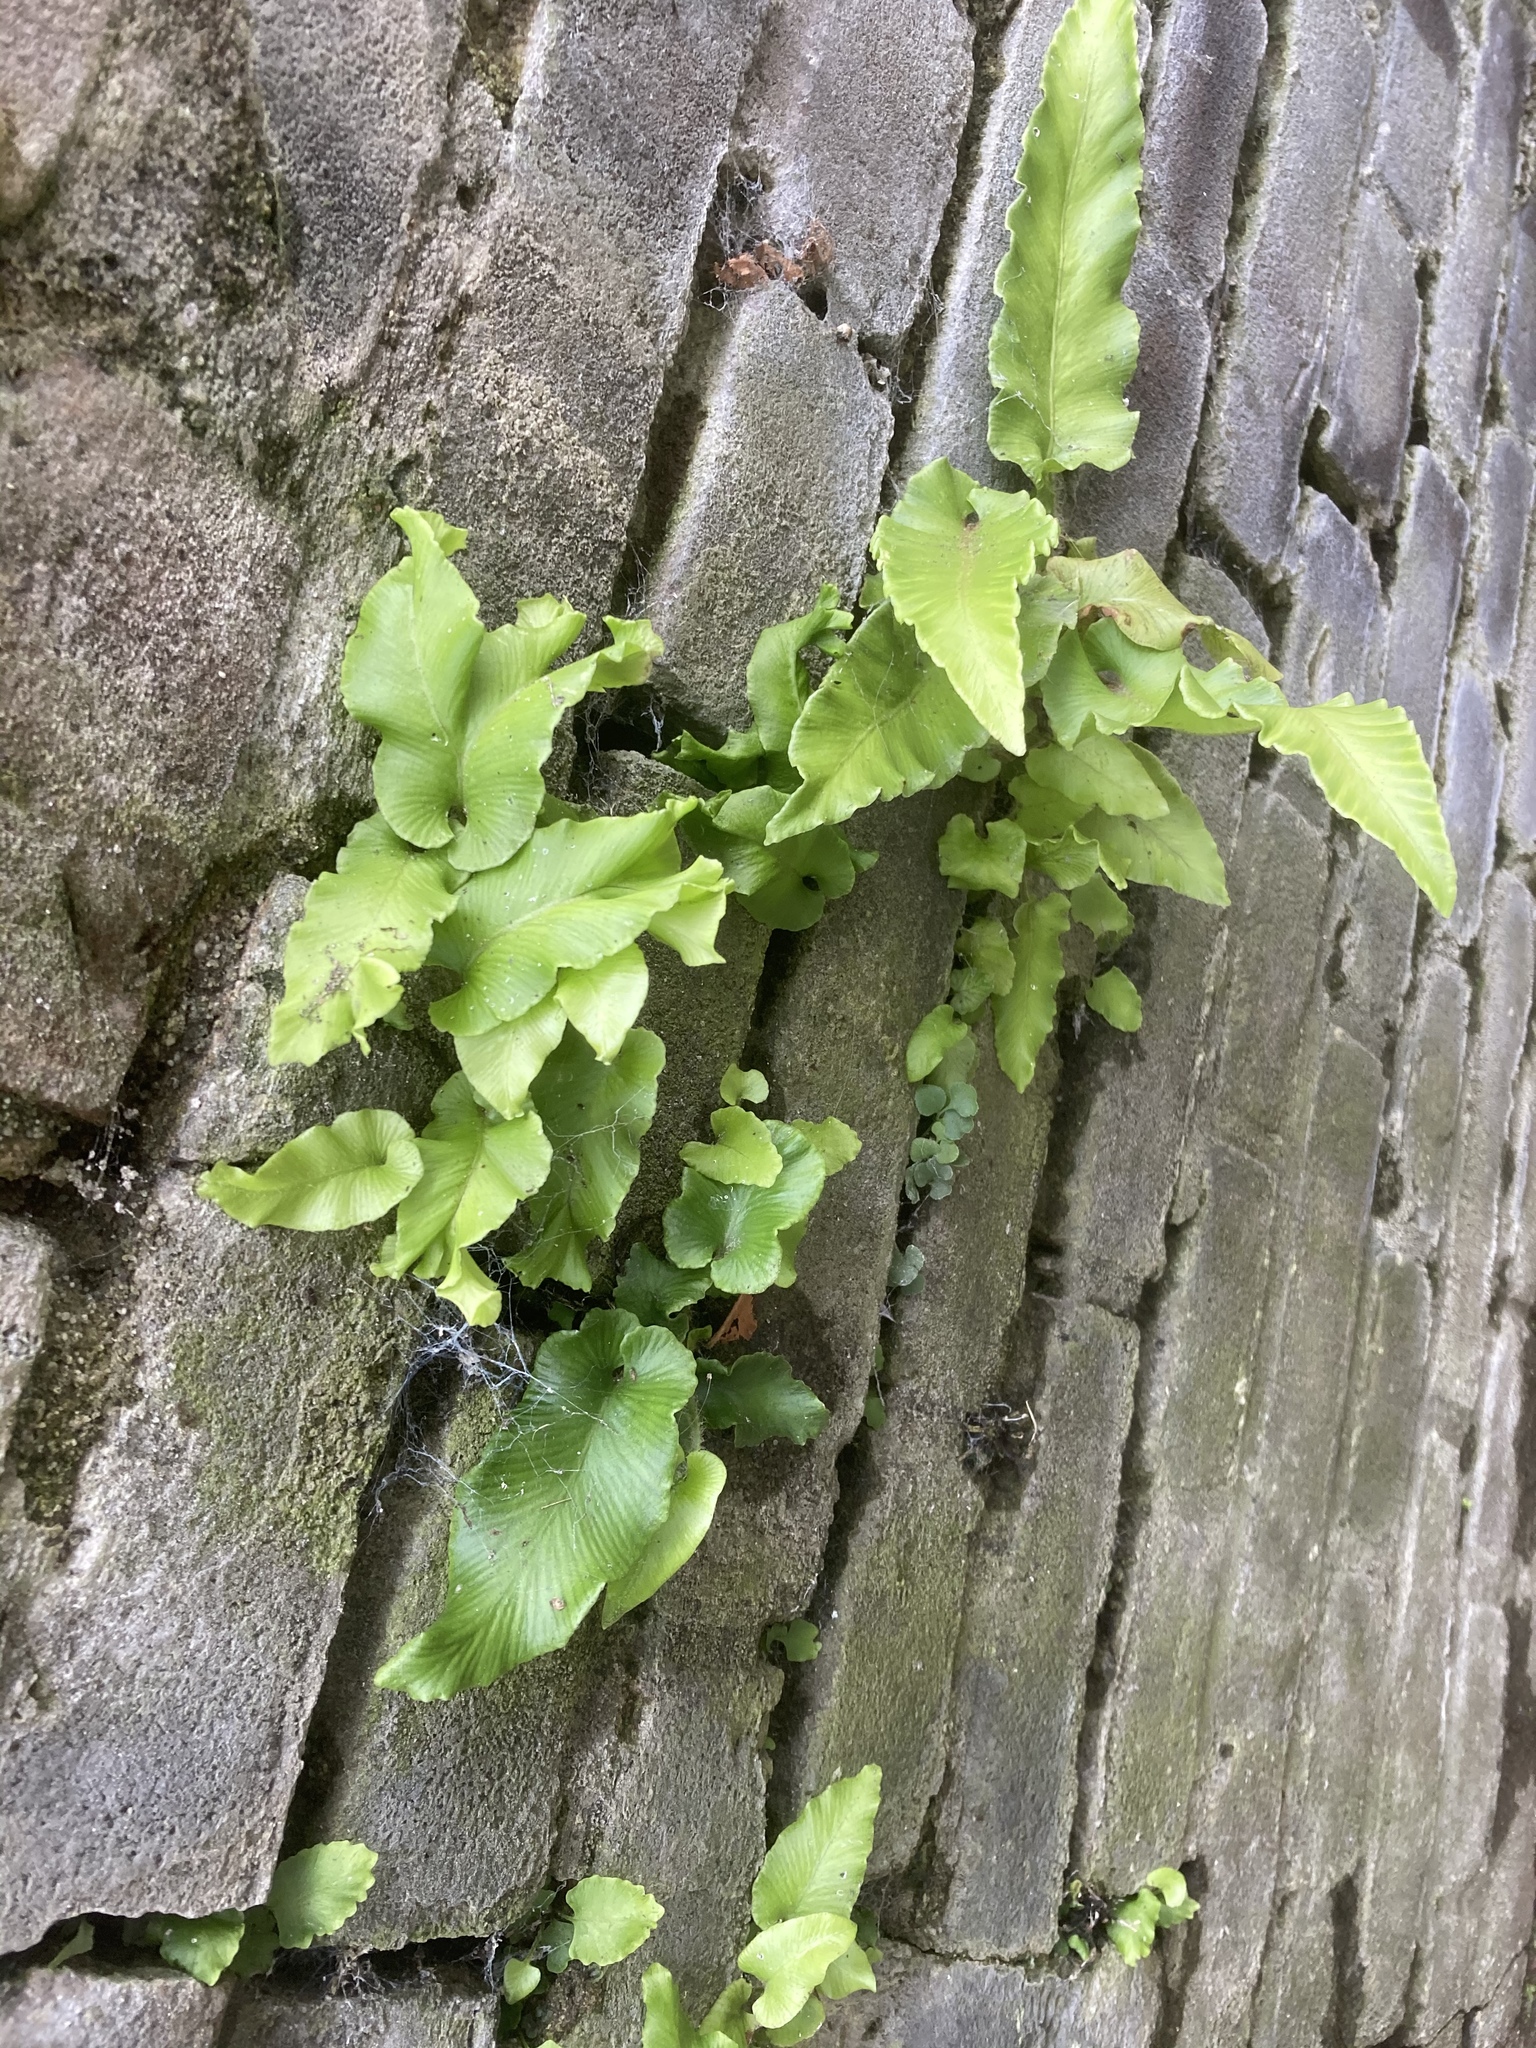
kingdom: Plantae
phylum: Tracheophyta
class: Polypodiopsida
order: Polypodiales
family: Aspleniaceae
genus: Asplenium
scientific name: Asplenium scolopendrium
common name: Hart's-tongue fern
